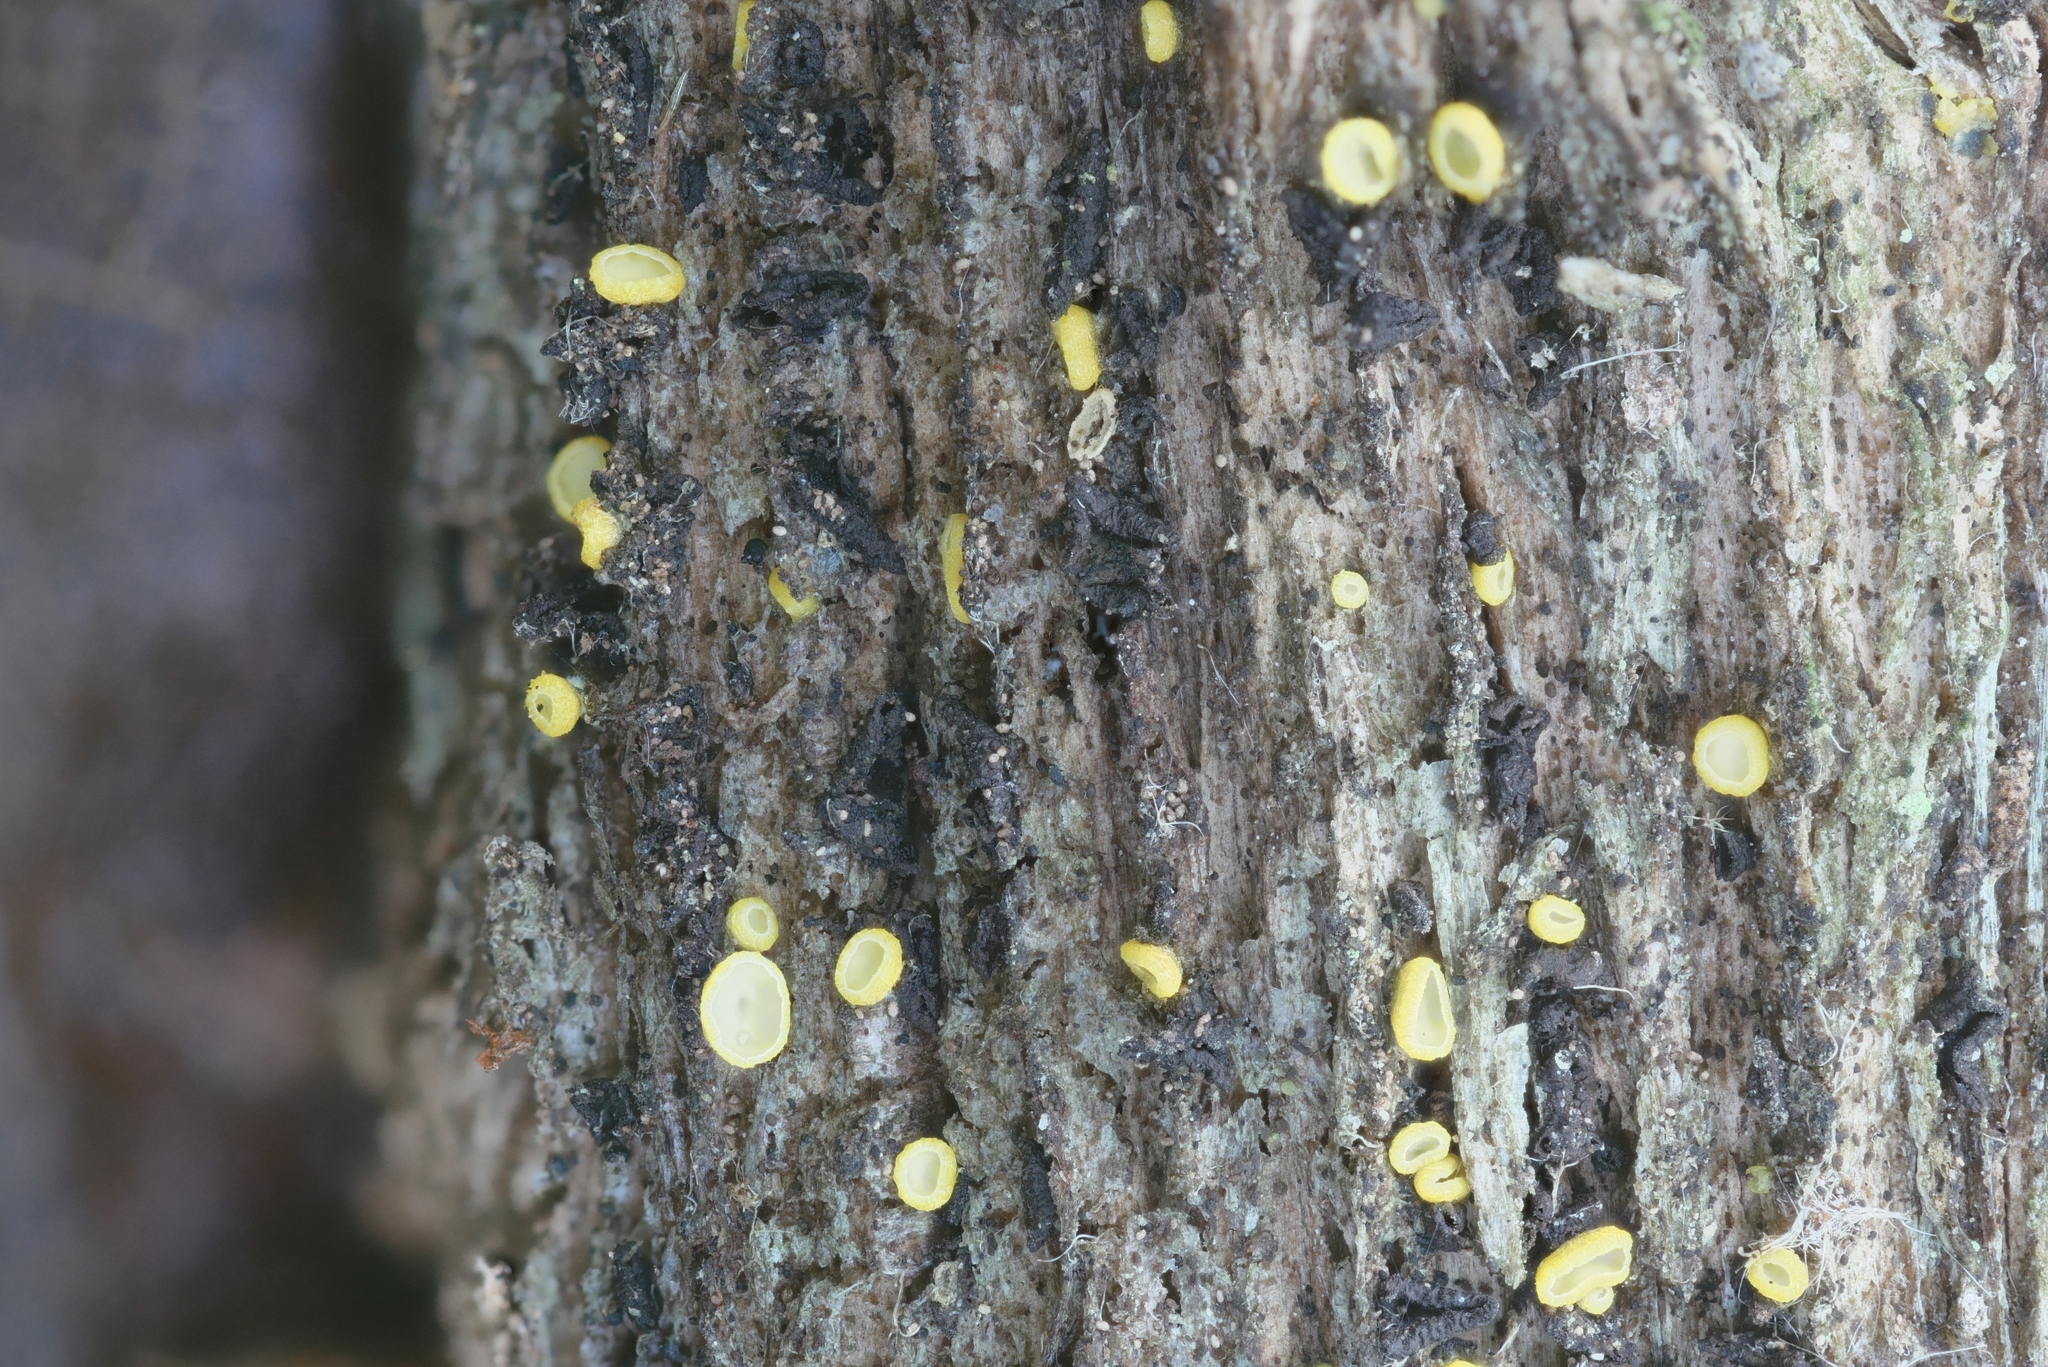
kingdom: Fungi
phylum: Ascomycota
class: Leotiomycetes
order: Helotiales
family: Chlorospleniaceae
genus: Chlorosplenium
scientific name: Chlorosplenium chlora
